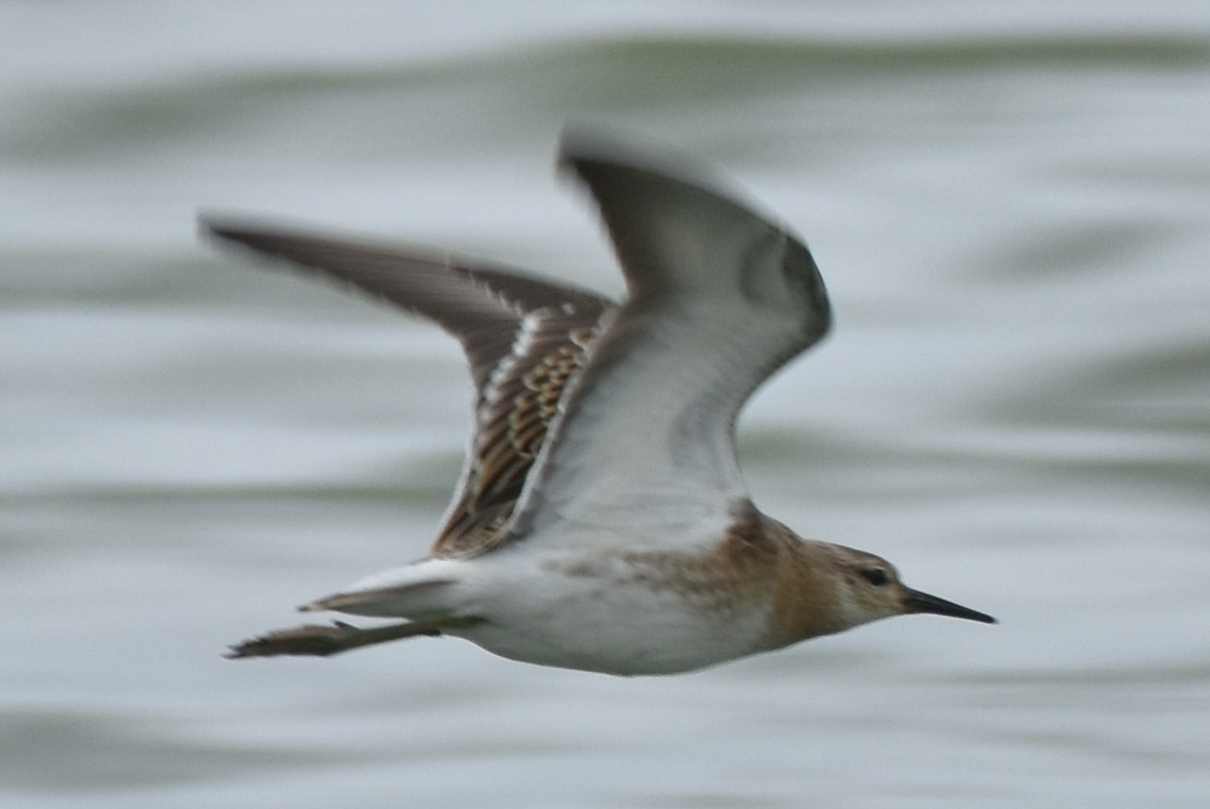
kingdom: Animalia
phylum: Chordata
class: Aves
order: Charadriiformes
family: Scolopacidae
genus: Calidris
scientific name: Calidris pugnax
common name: Ruff
